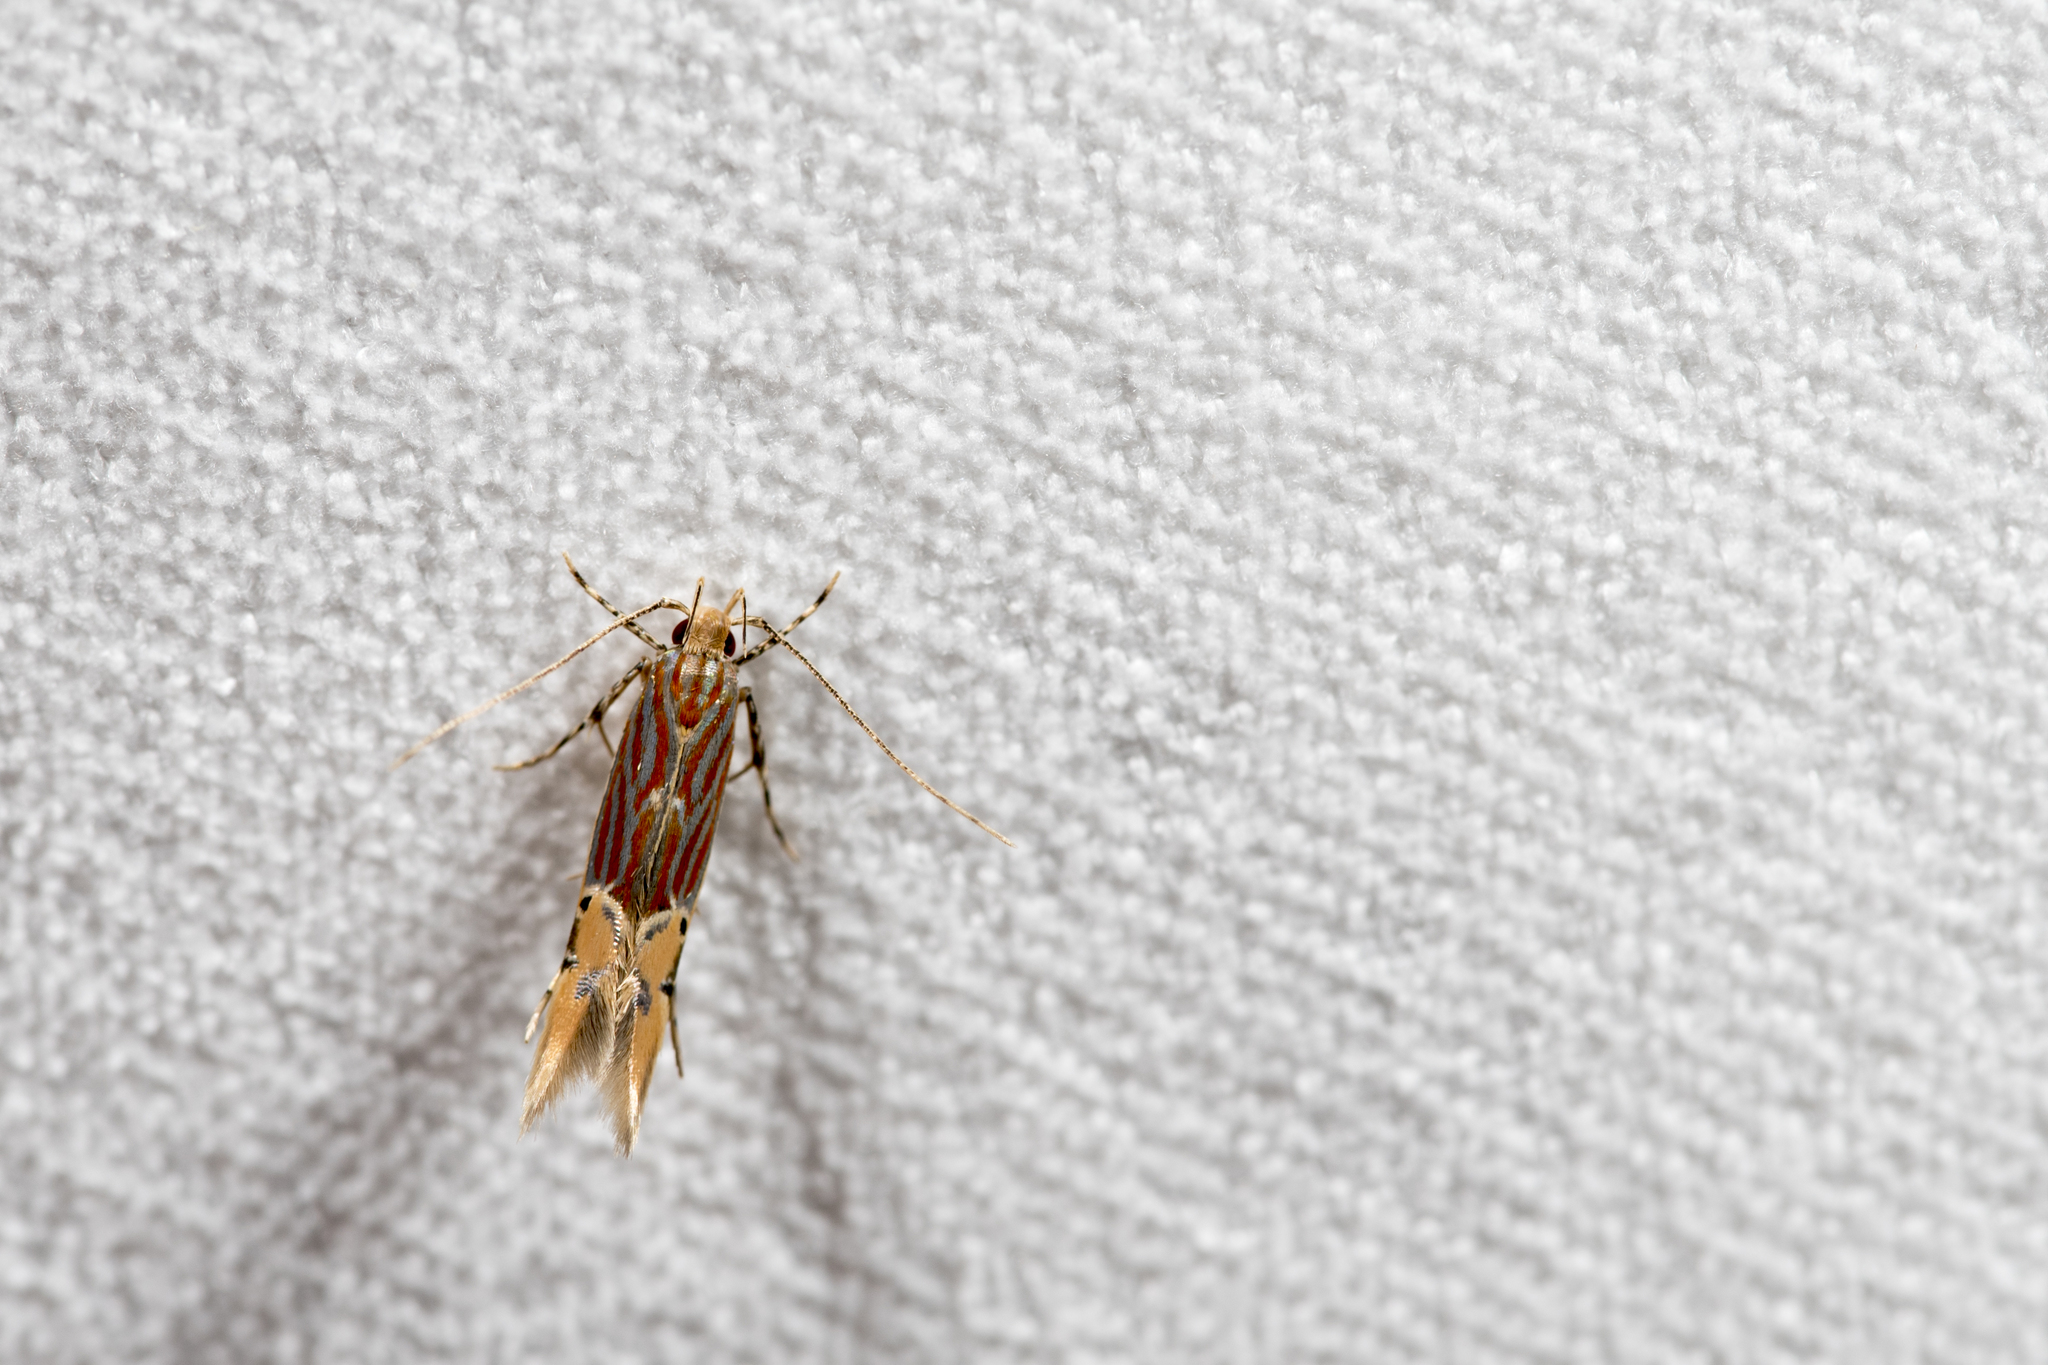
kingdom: Animalia
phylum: Arthropoda
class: Insecta
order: Lepidoptera
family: Cosmopterigidae
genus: Labdia
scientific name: Labdia semicoccinea
